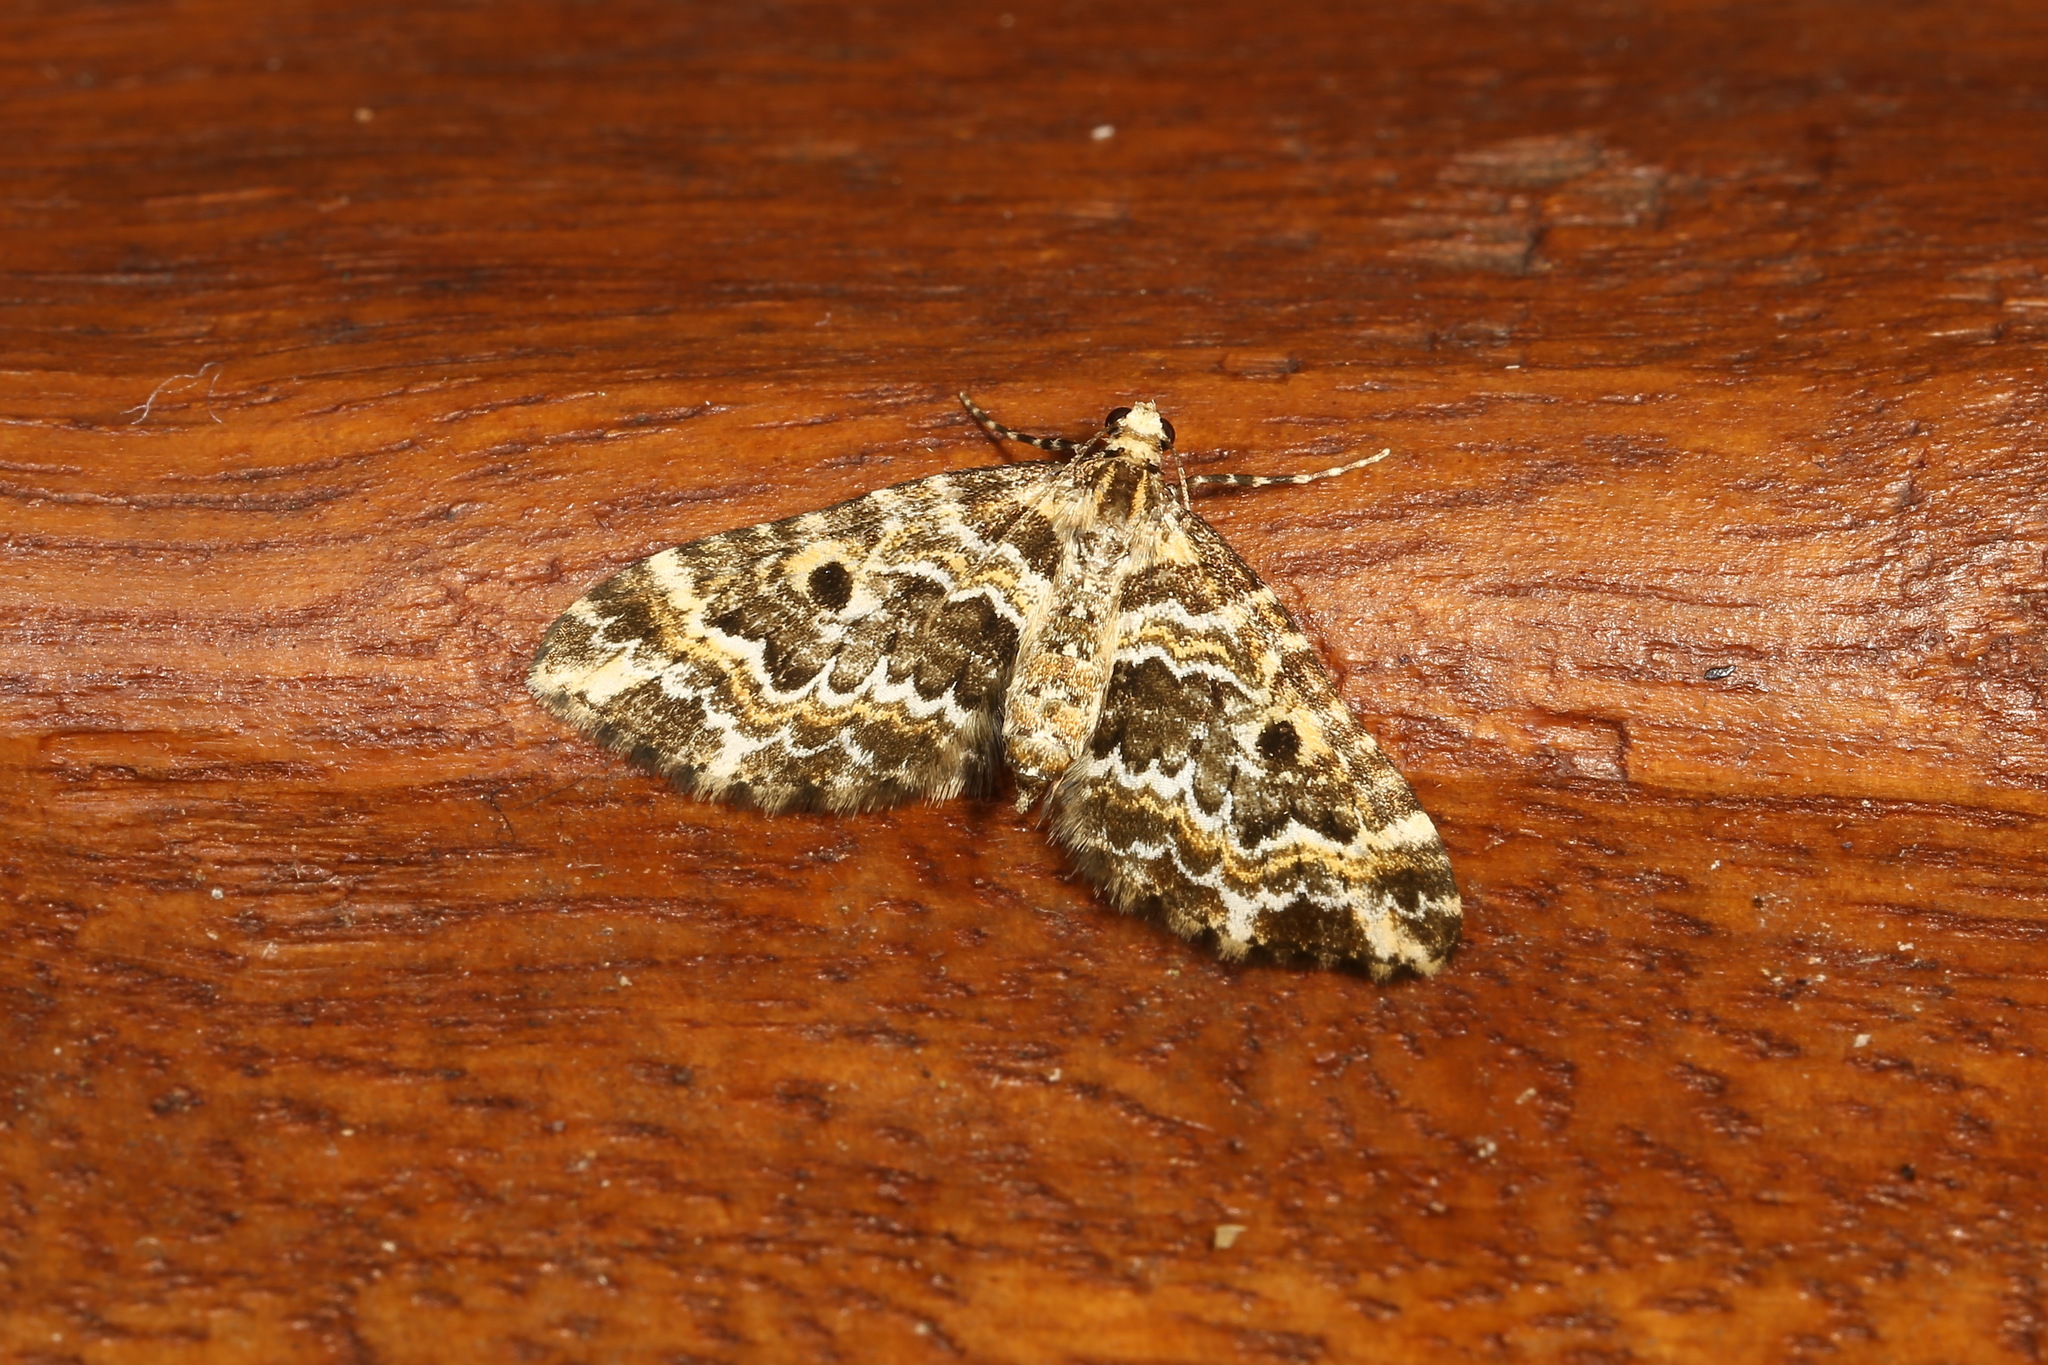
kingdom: Animalia
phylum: Arthropoda
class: Insecta
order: Lepidoptera
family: Geometridae
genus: Larentia
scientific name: Larentia tenuis
